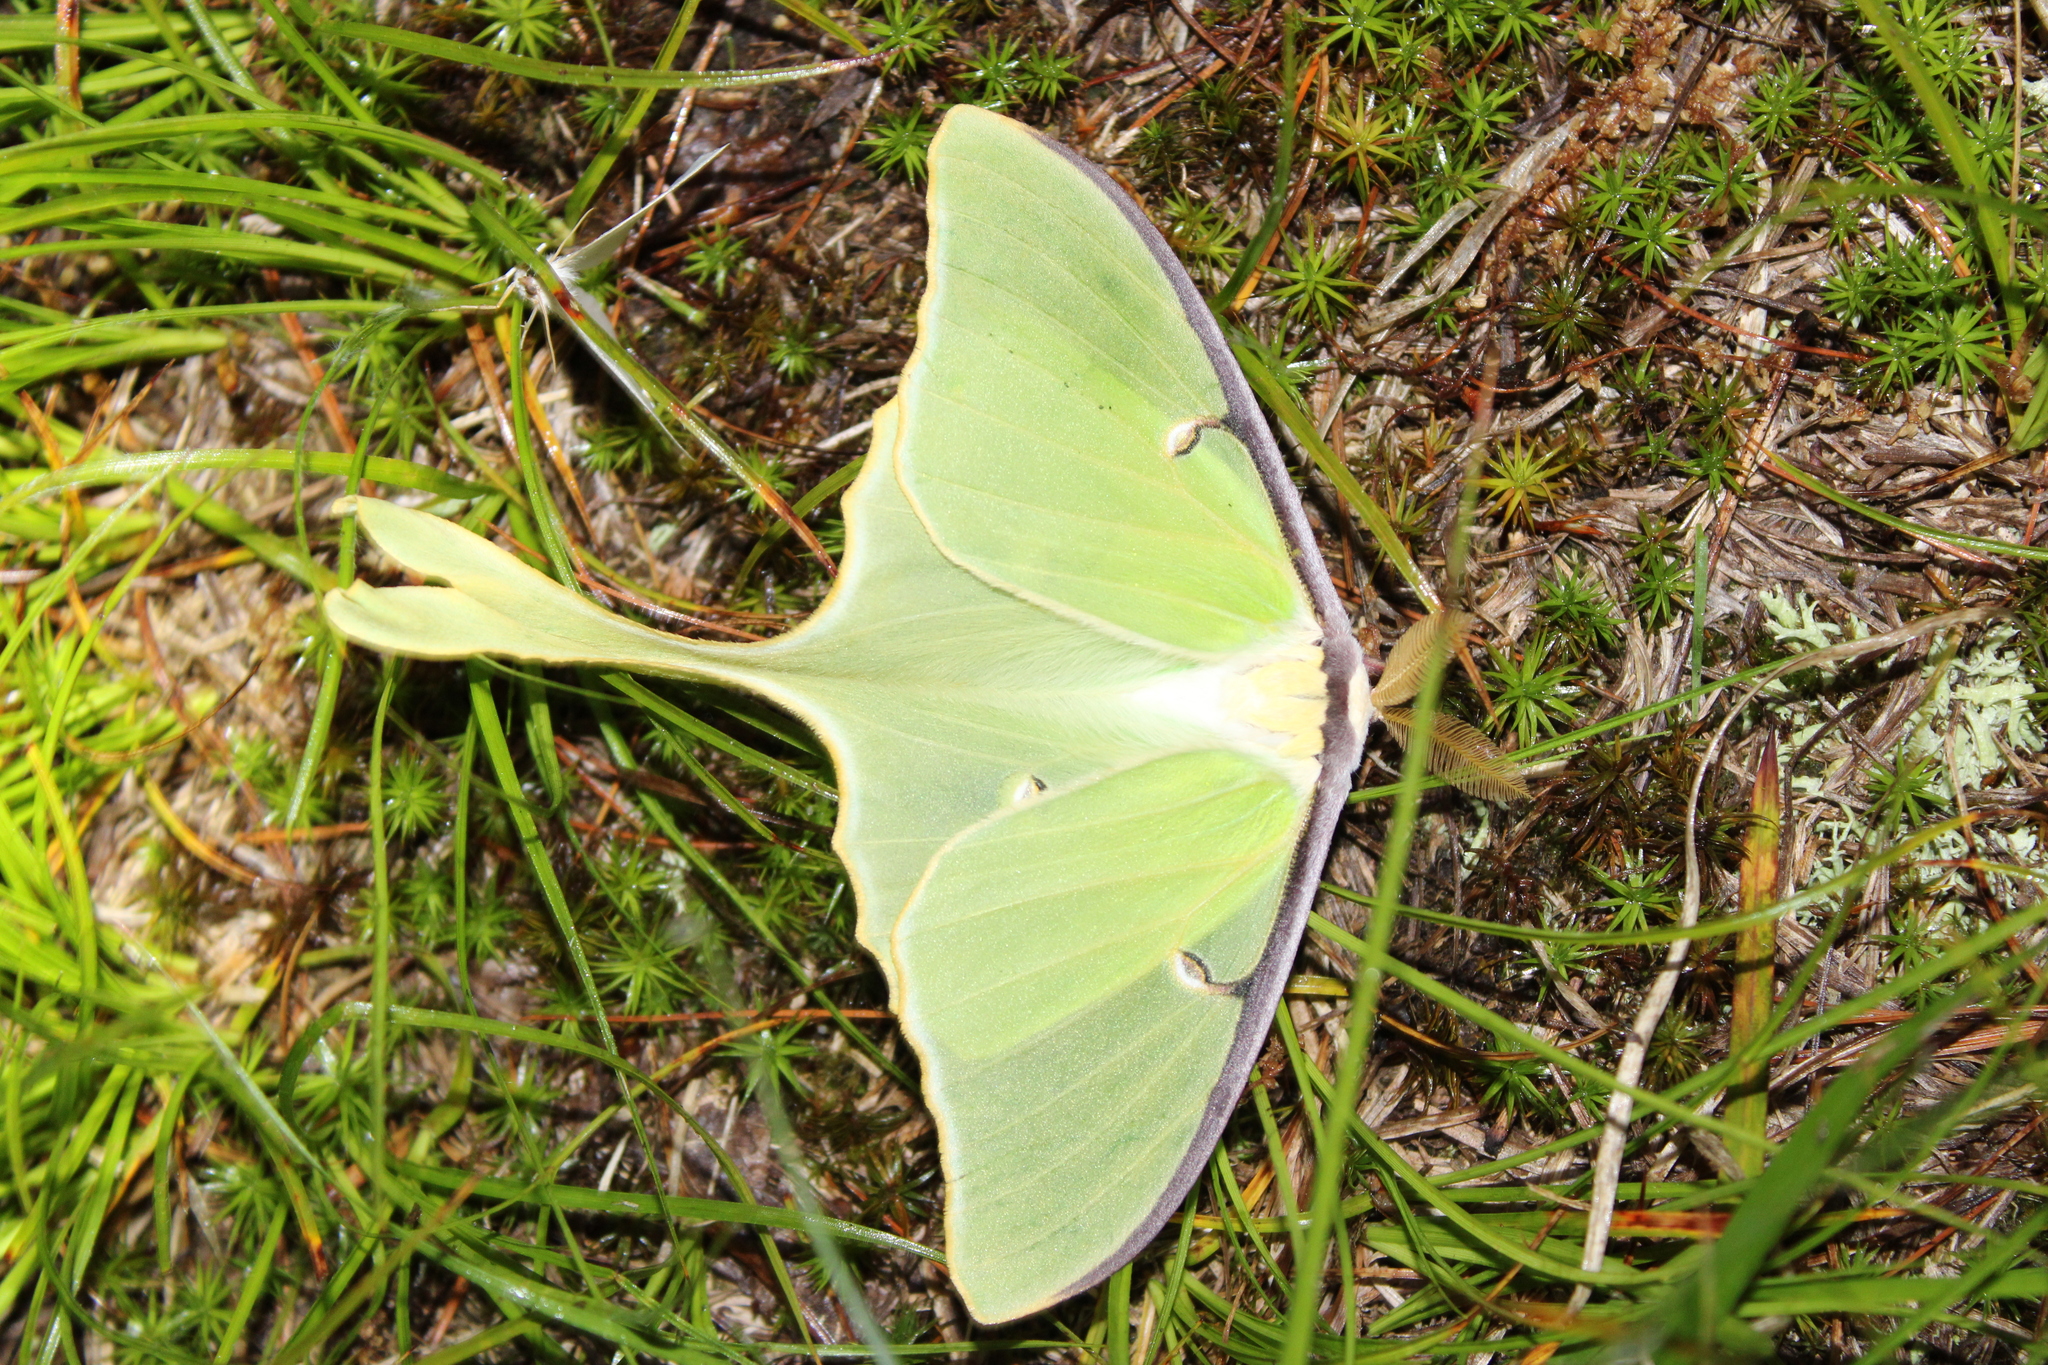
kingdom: Animalia
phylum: Arthropoda
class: Insecta
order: Lepidoptera
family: Saturniidae
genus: Actias
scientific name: Actias luna
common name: Luna moth
